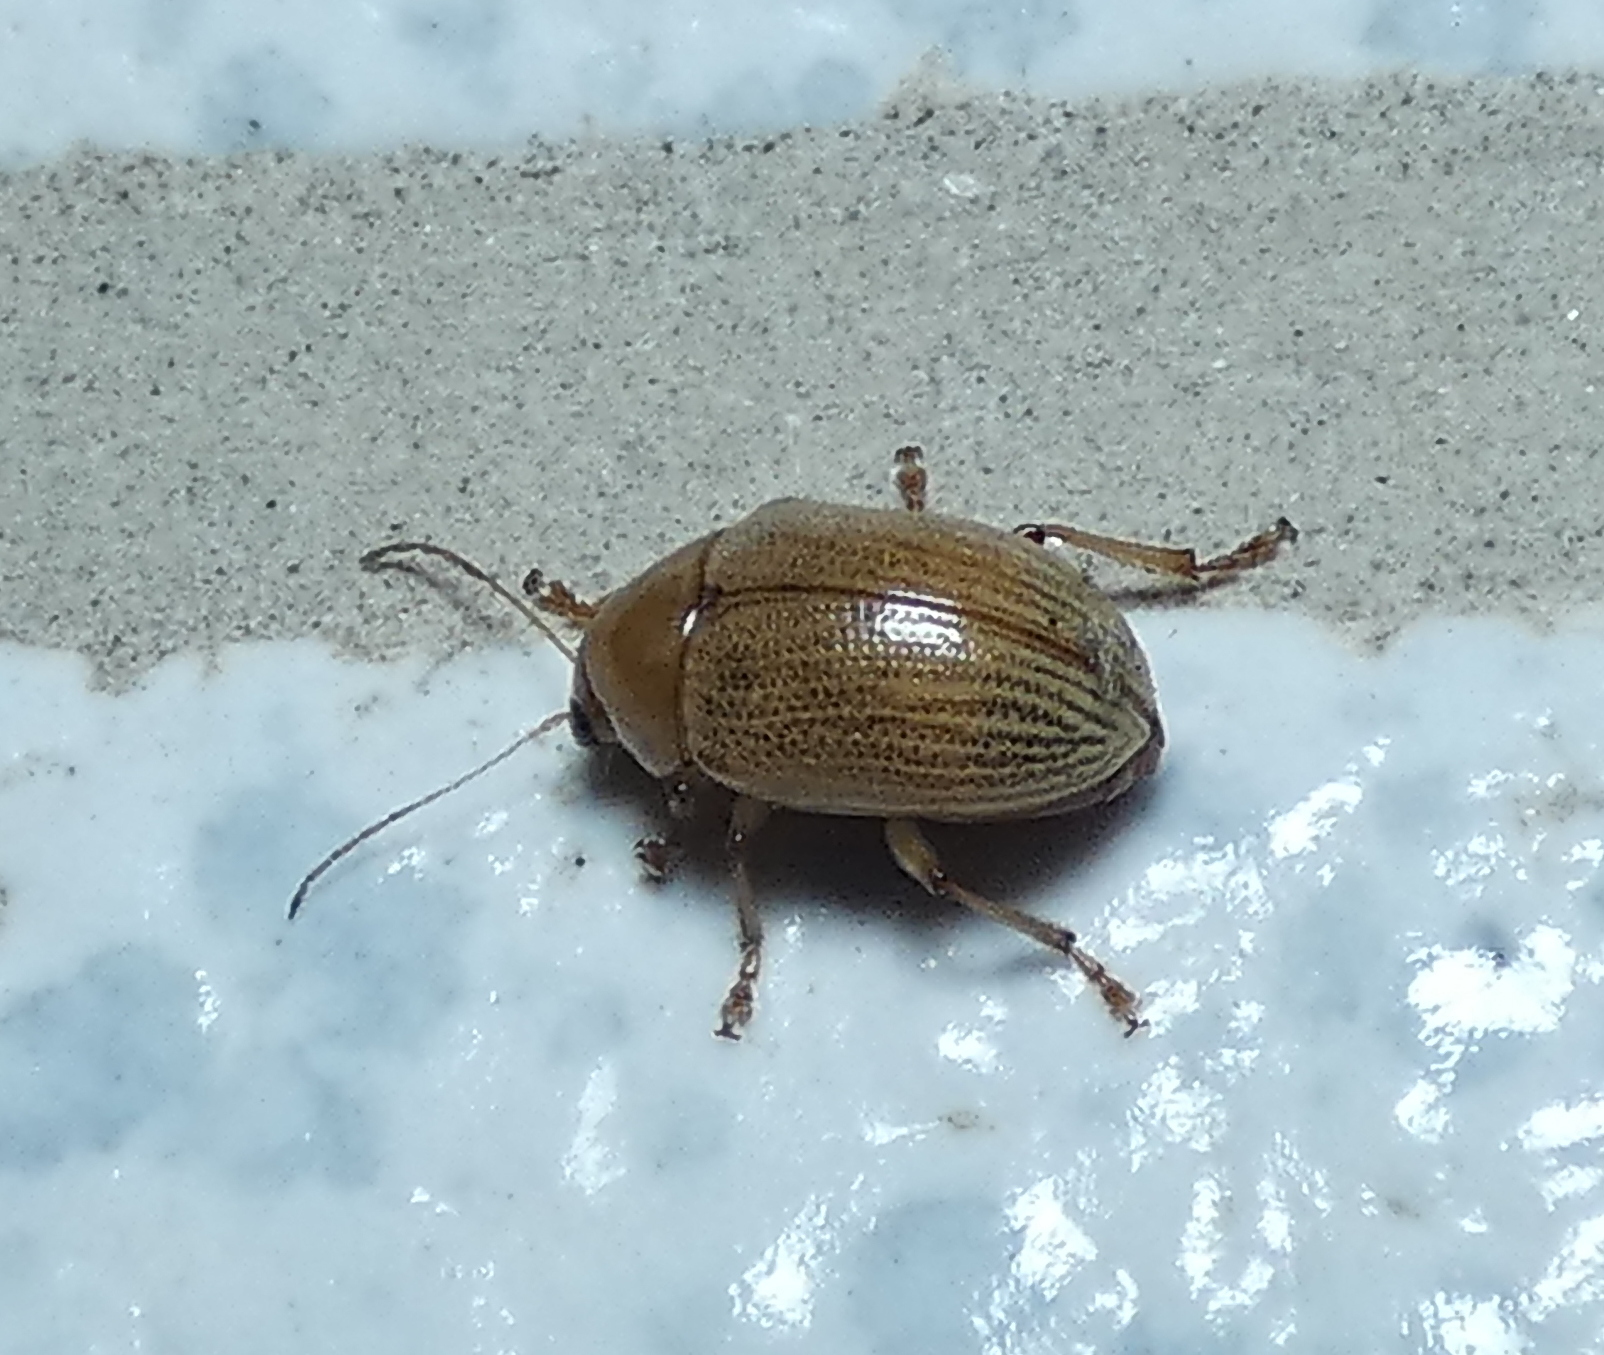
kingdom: Animalia
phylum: Arthropoda
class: Insecta
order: Coleoptera
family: Chrysomelidae
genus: Anisodera
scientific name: Anisodera ferruginea
